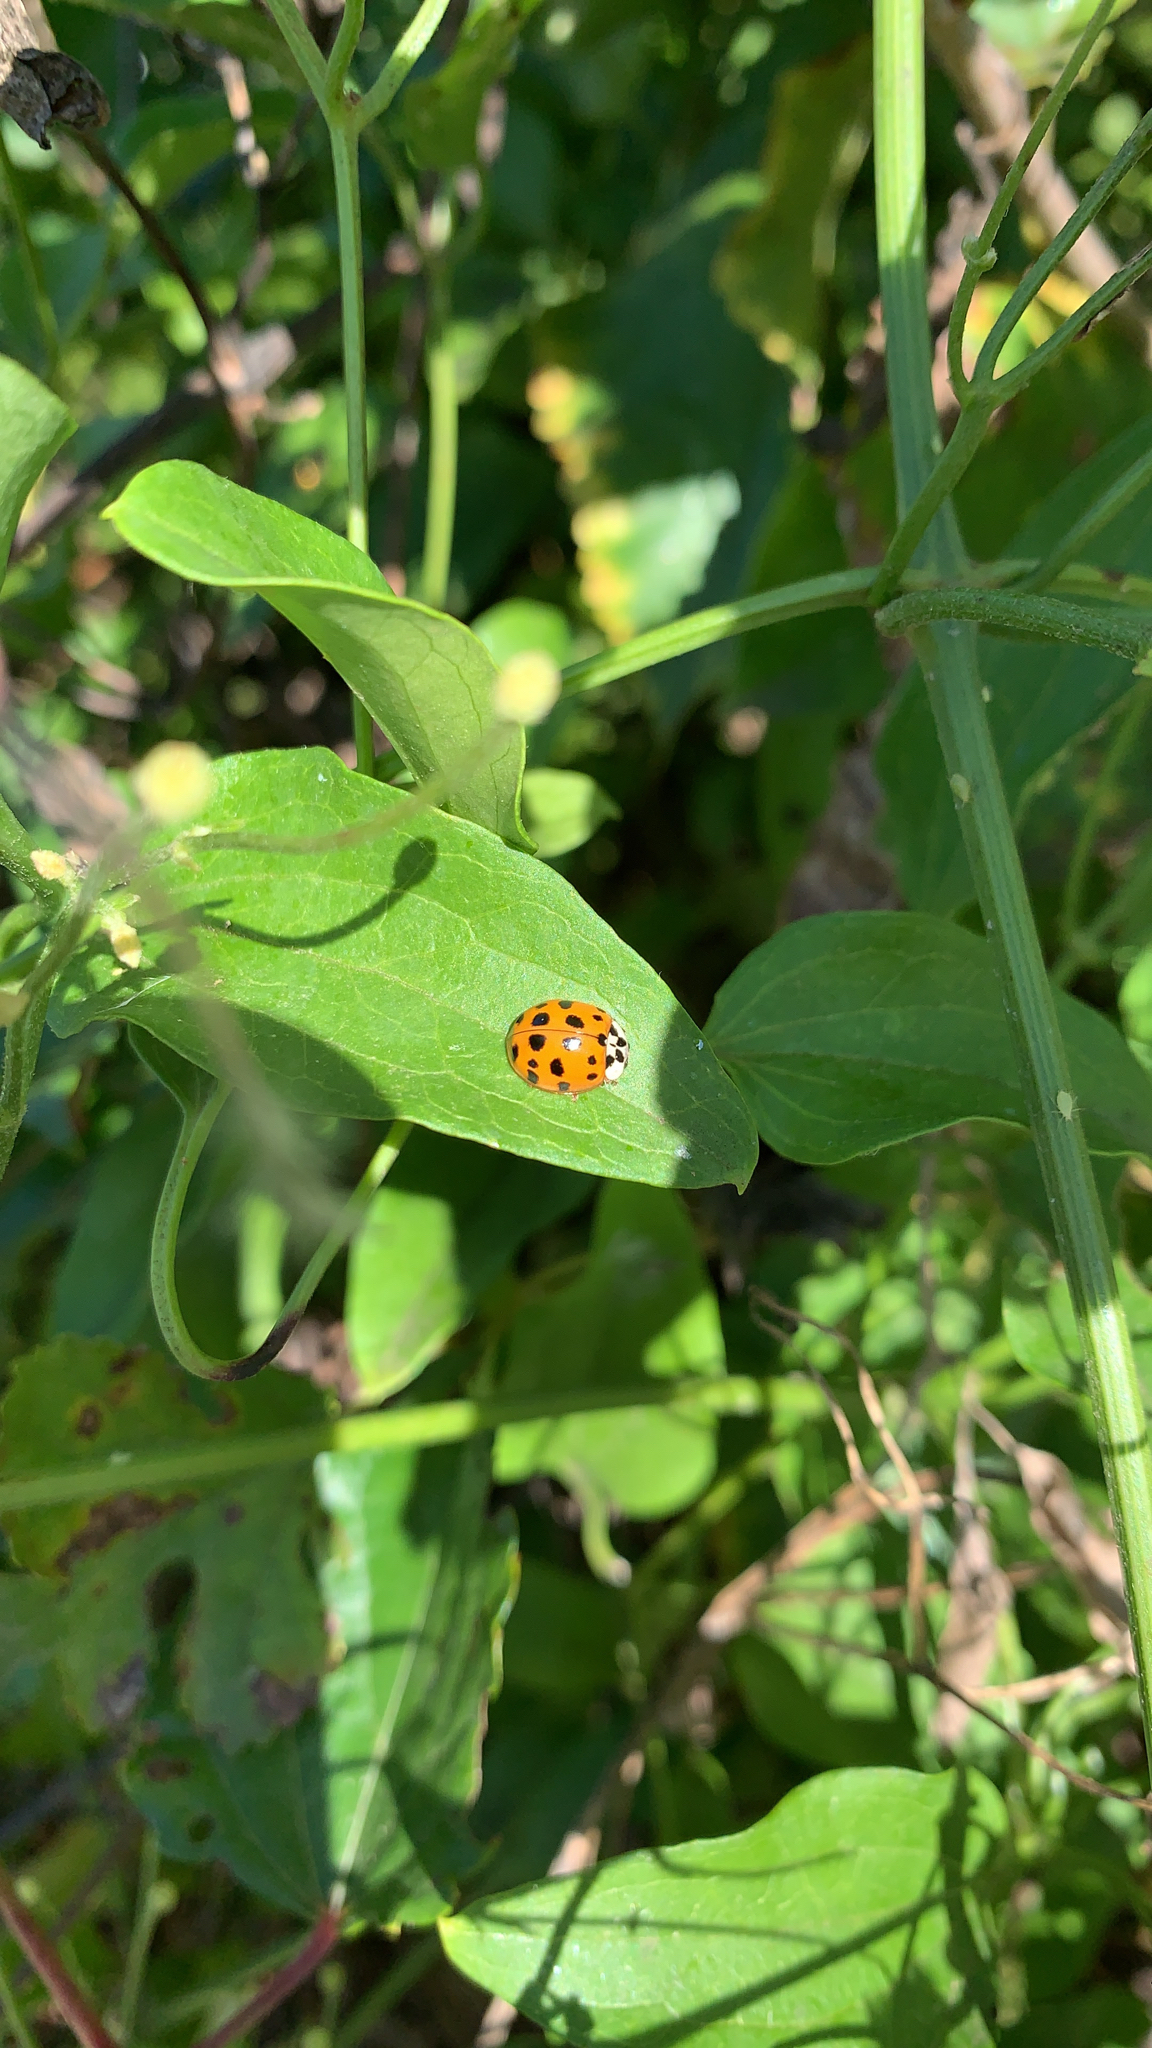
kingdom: Animalia
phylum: Arthropoda
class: Insecta
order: Coleoptera
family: Coccinellidae
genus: Harmonia
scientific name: Harmonia axyridis
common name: Harlequin ladybird
